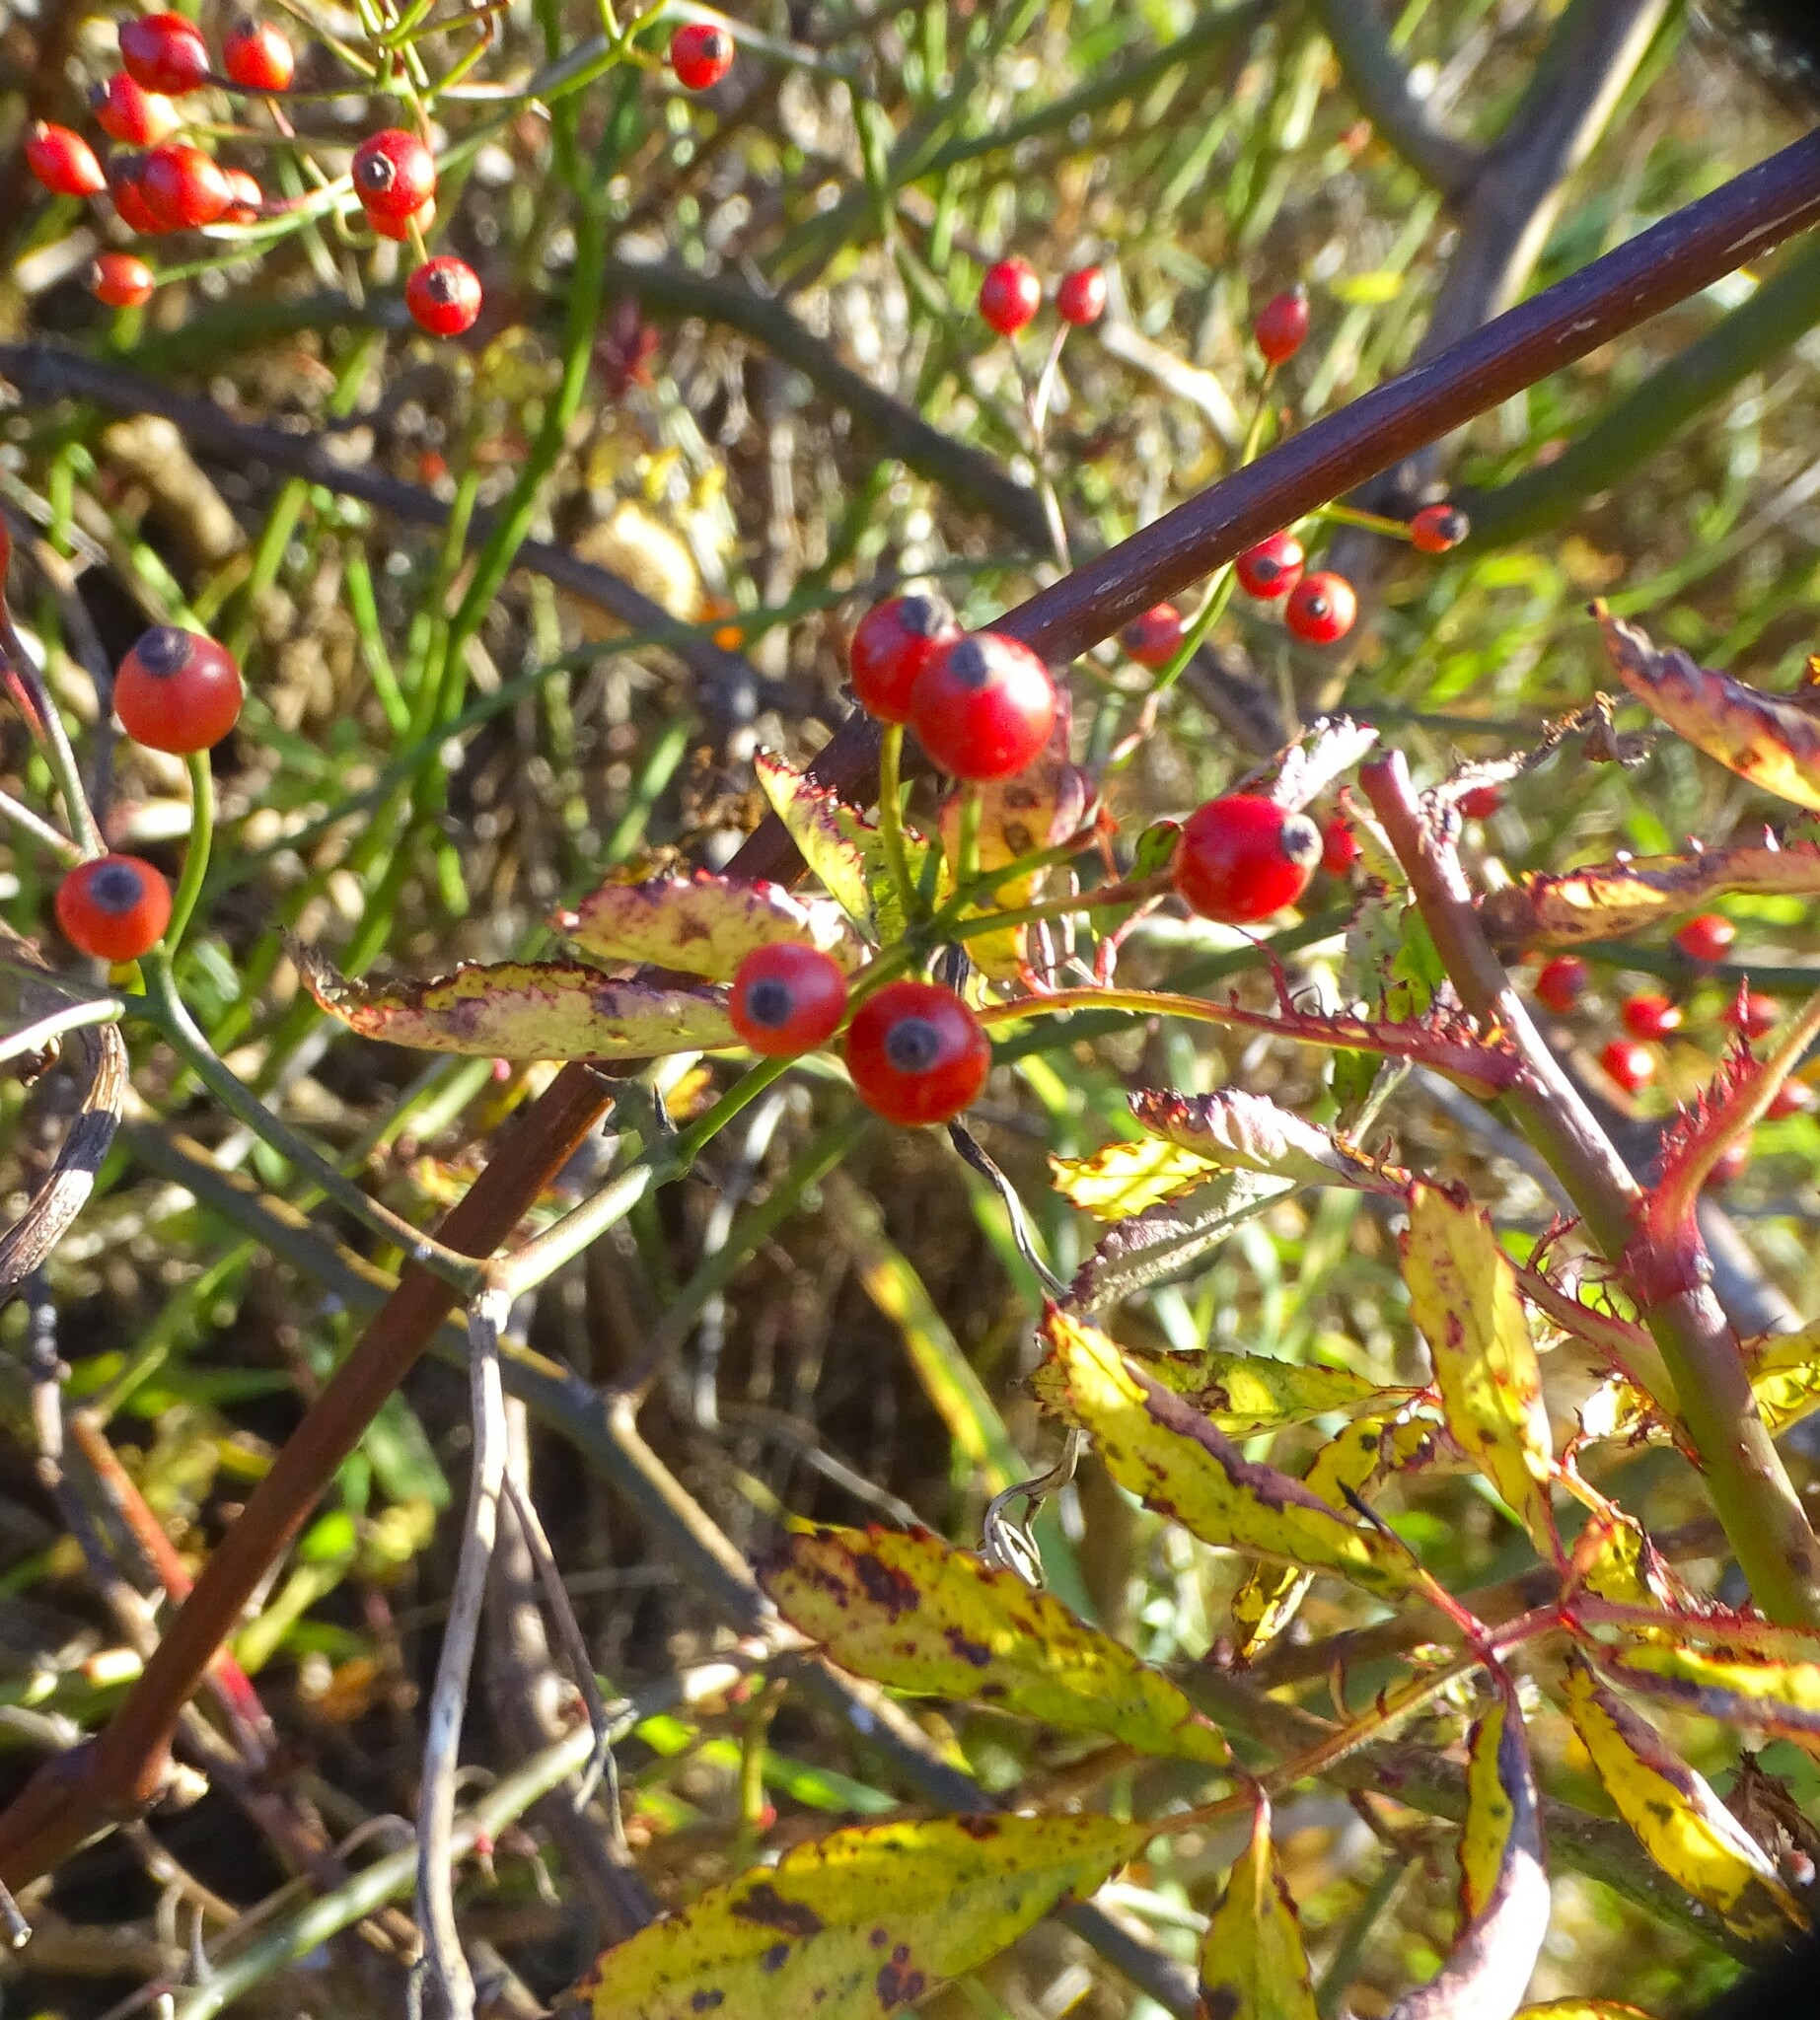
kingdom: Plantae
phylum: Tracheophyta
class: Magnoliopsida
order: Rosales
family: Rosaceae
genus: Rosa
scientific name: Rosa multiflora
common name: Multiflora rose
